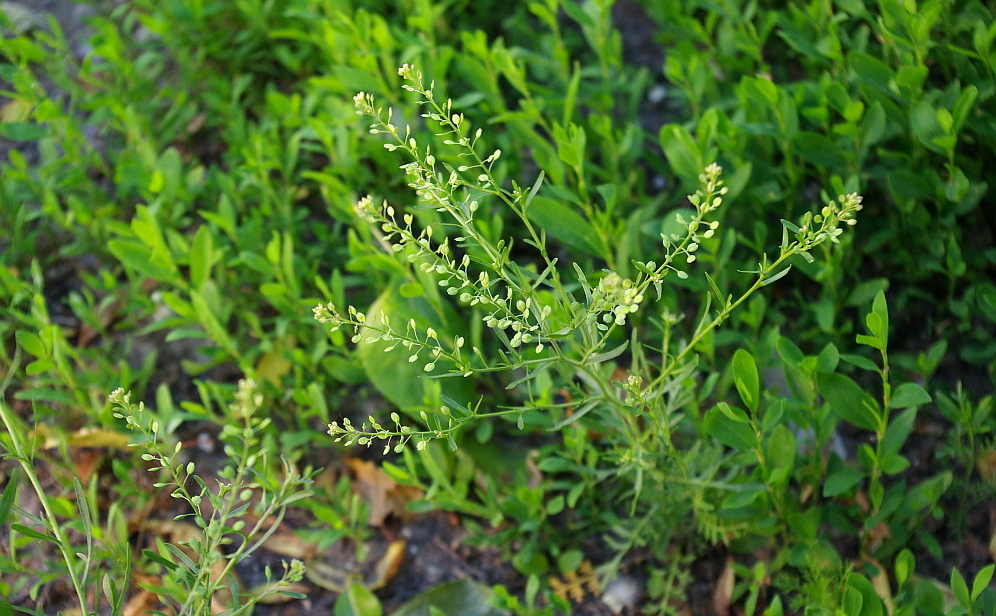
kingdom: Plantae
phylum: Tracheophyta
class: Magnoliopsida
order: Brassicales
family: Brassicaceae
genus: Lepidium
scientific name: Lepidium ruderale
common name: Narrow-leaved pepperwort
